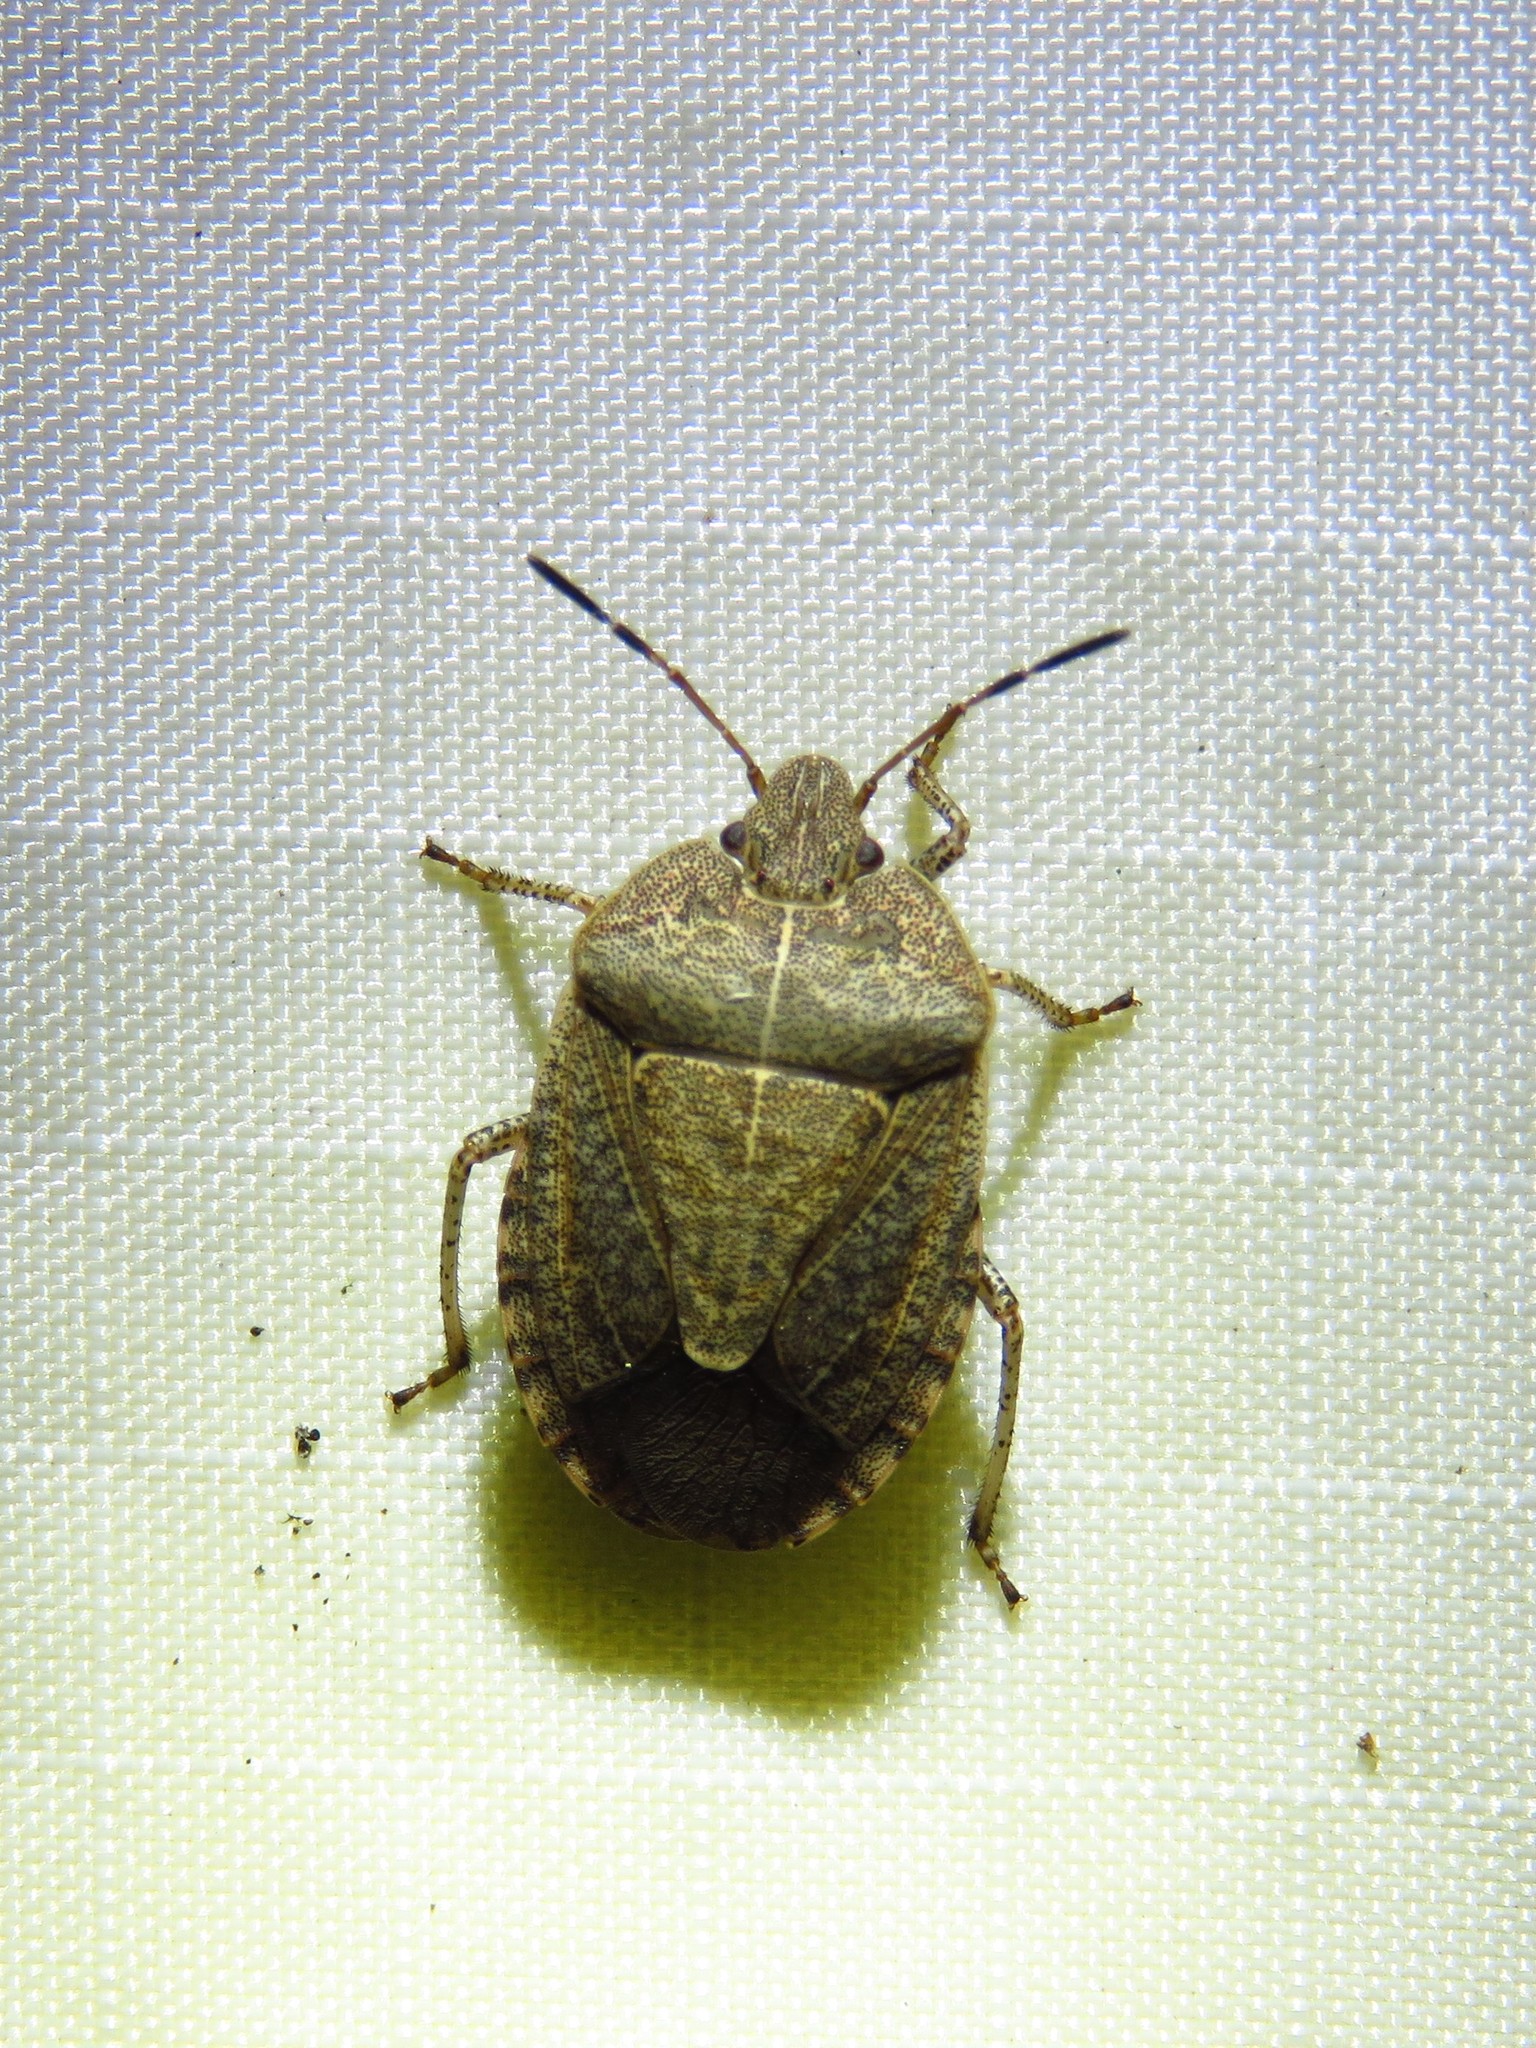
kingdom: Animalia
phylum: Arthropoda
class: Insecta
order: Hemiptera
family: Pentatomidae
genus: Menecles
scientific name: Menecles insertus
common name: Elf shoe stink bug
